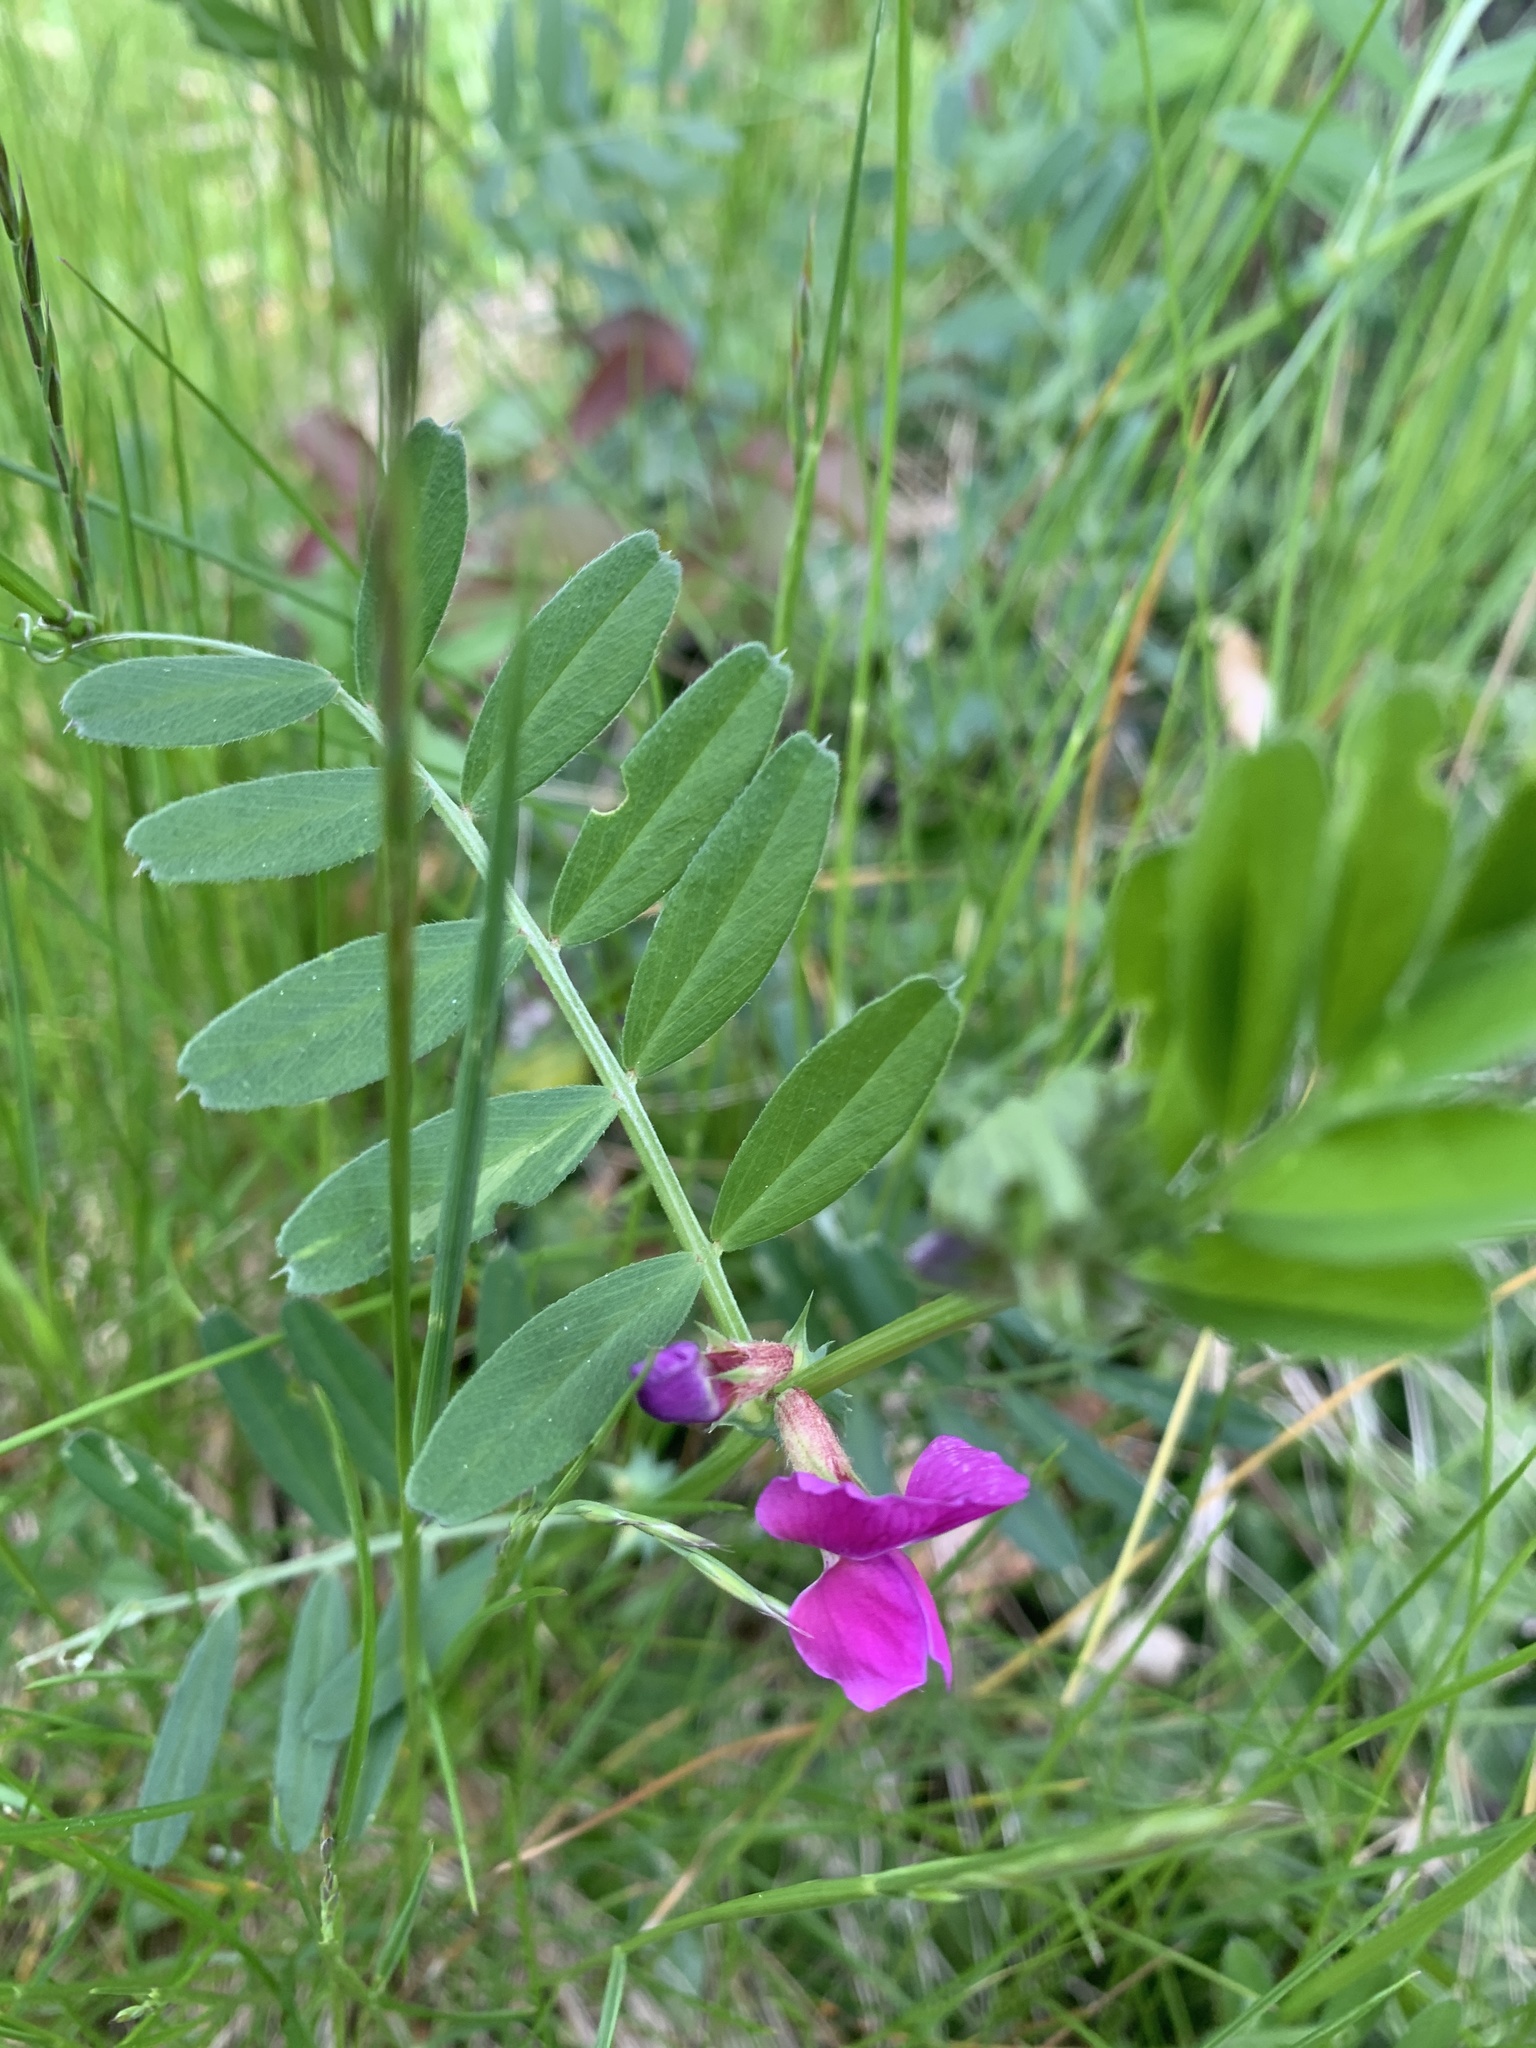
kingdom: Plantae
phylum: Tracheophyta
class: Magnoliopsida
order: Fabales
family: Fabaceae
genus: Vicia
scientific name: Vicia sativa
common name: Garden vetch
